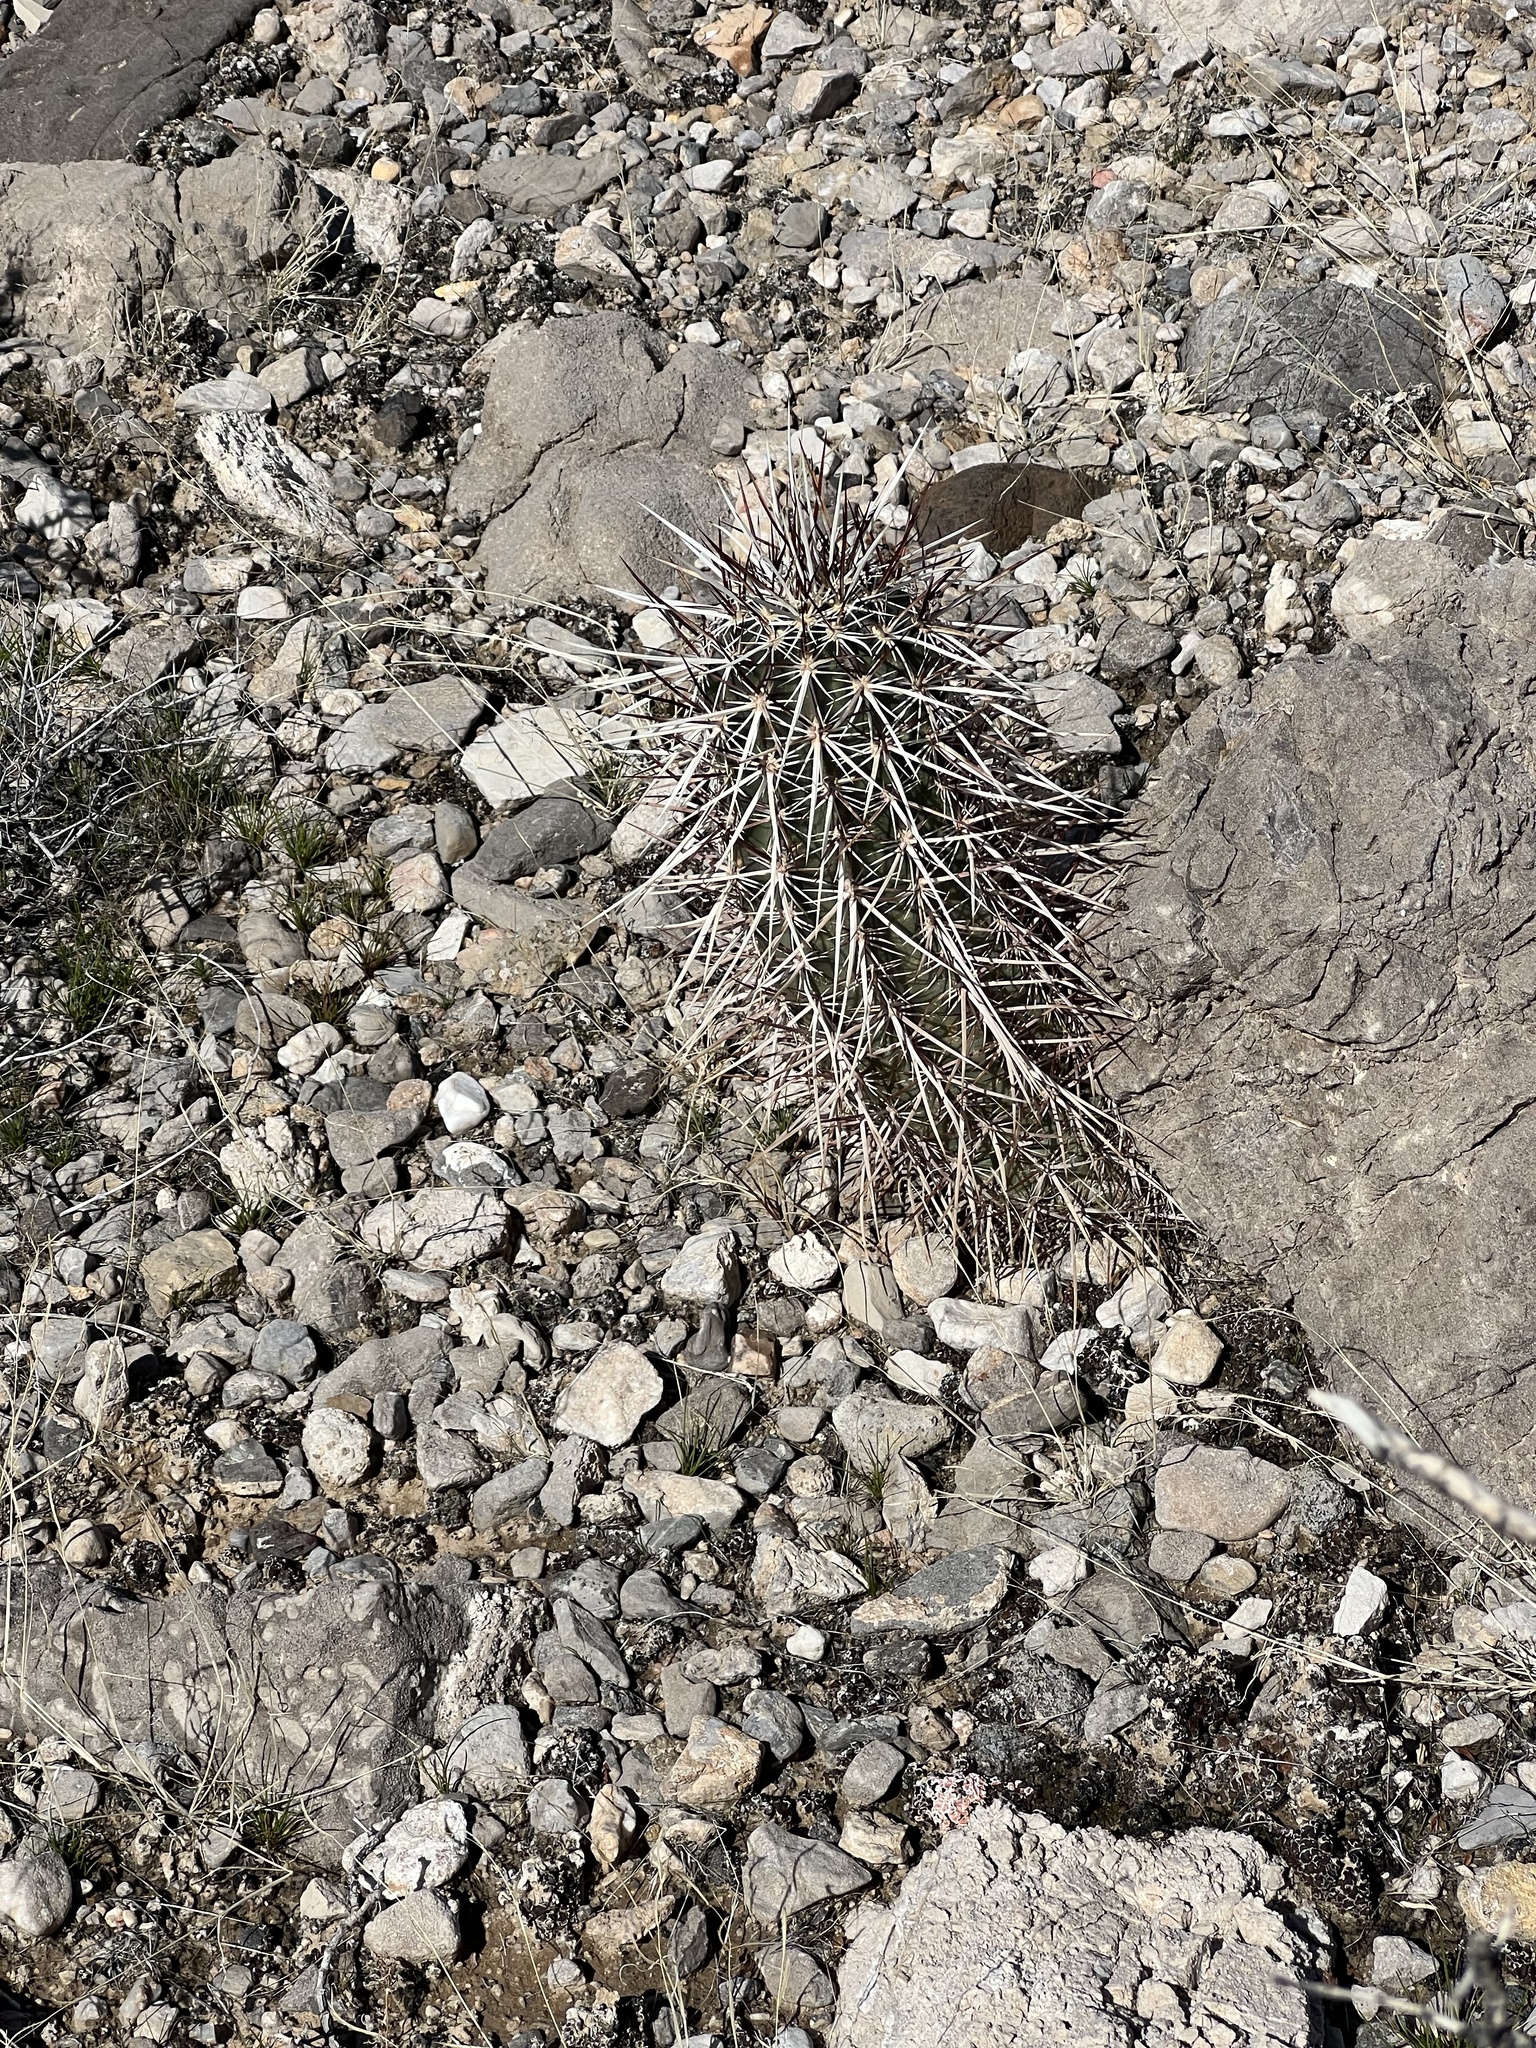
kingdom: Plantae
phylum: Tracheophyta
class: Magnoliopsida
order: Caryophyllales
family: Cactaceae
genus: Echinocereus
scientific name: Echinocereus engelmannii
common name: Engelmann's hedgehog cactus
